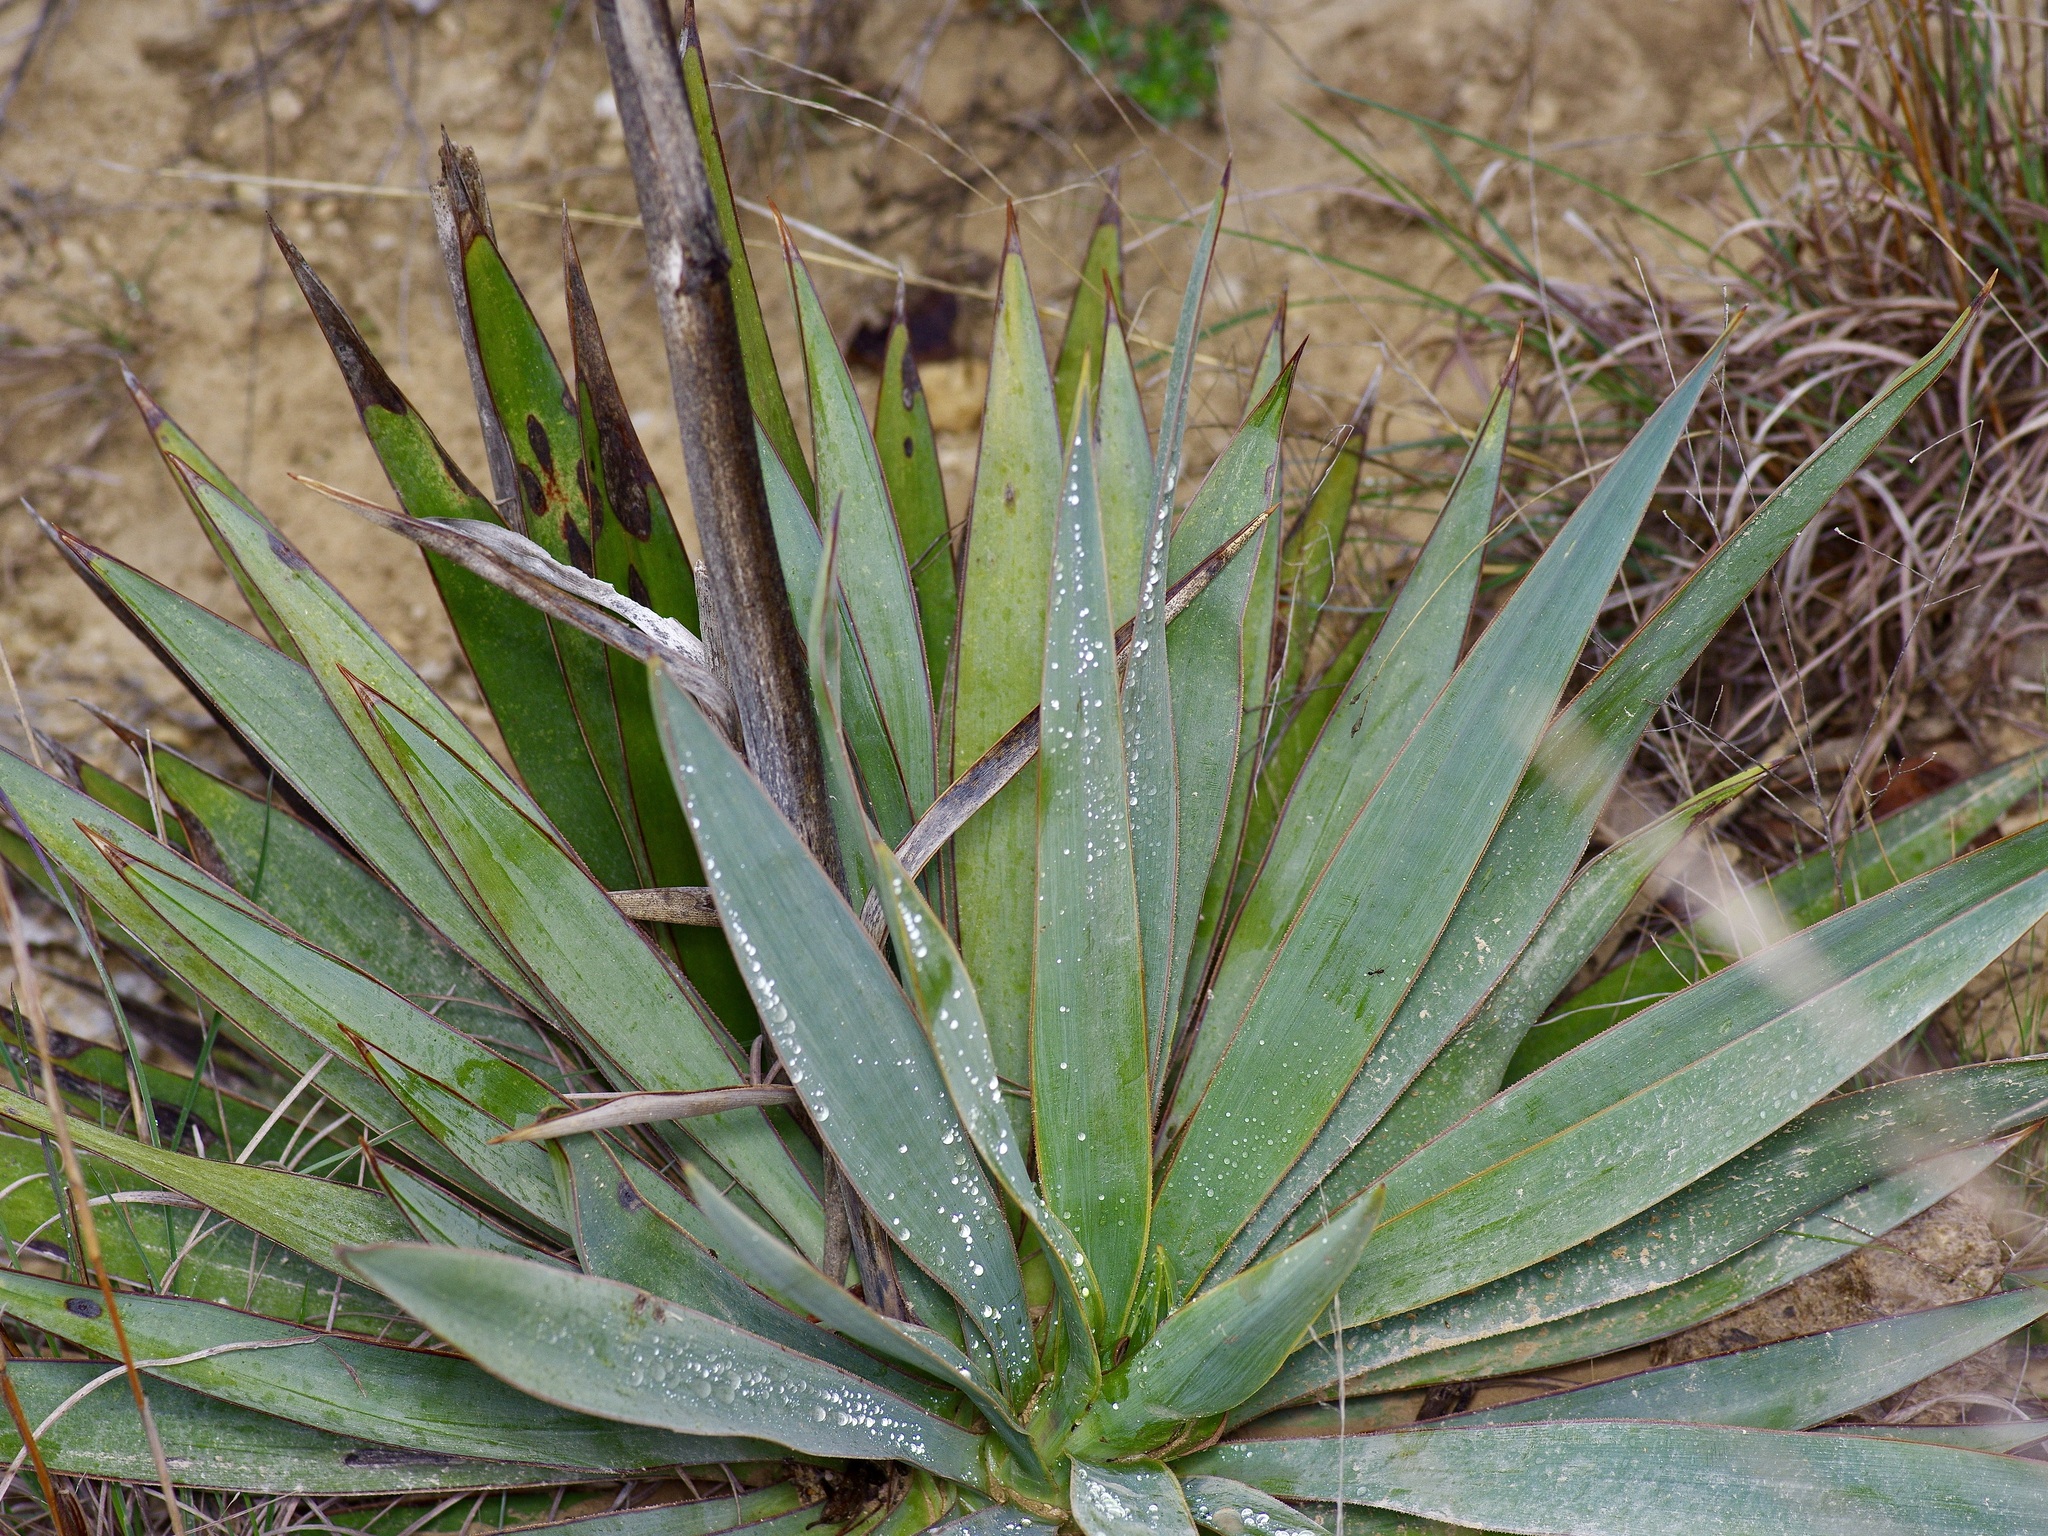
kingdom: Plantae
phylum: Tracheophyta
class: Liliopsida
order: Asparagales
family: Asparagaceae
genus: Yucca
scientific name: Yucca pallida
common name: Pale leaf yucca
